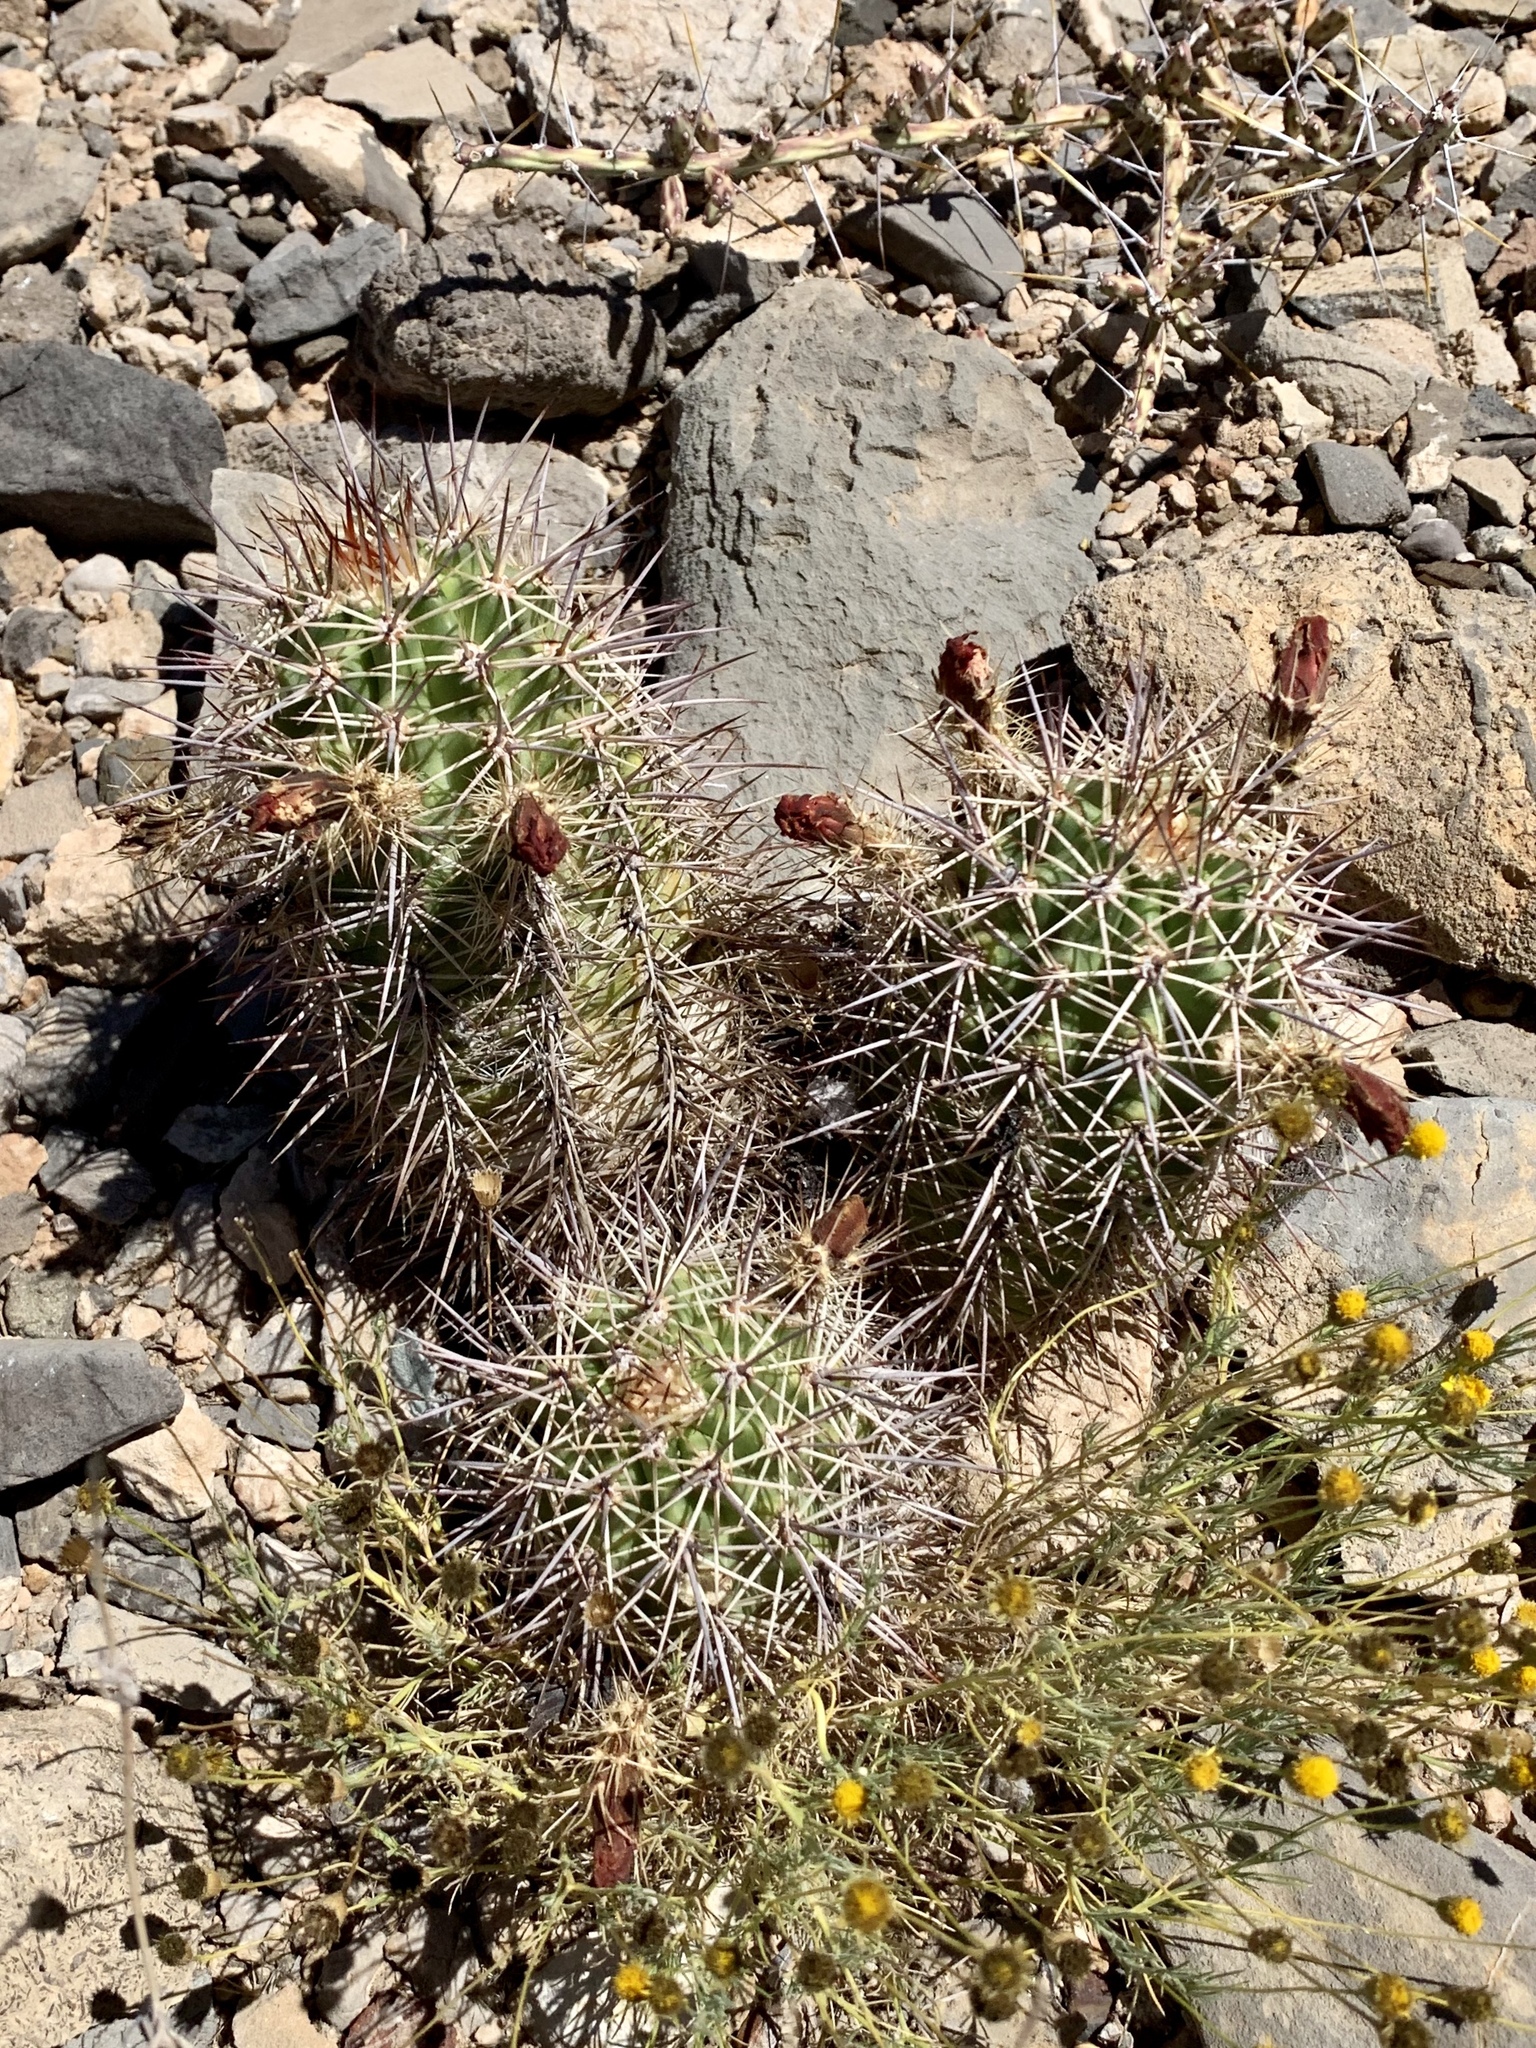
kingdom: Plantae
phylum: Tracheophyta
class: Magnoliopsida
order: Caryophyllales
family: Cactaceae
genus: Echinocereus
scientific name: Echinocereus coccineus
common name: Scarlet hedgehog cactus
